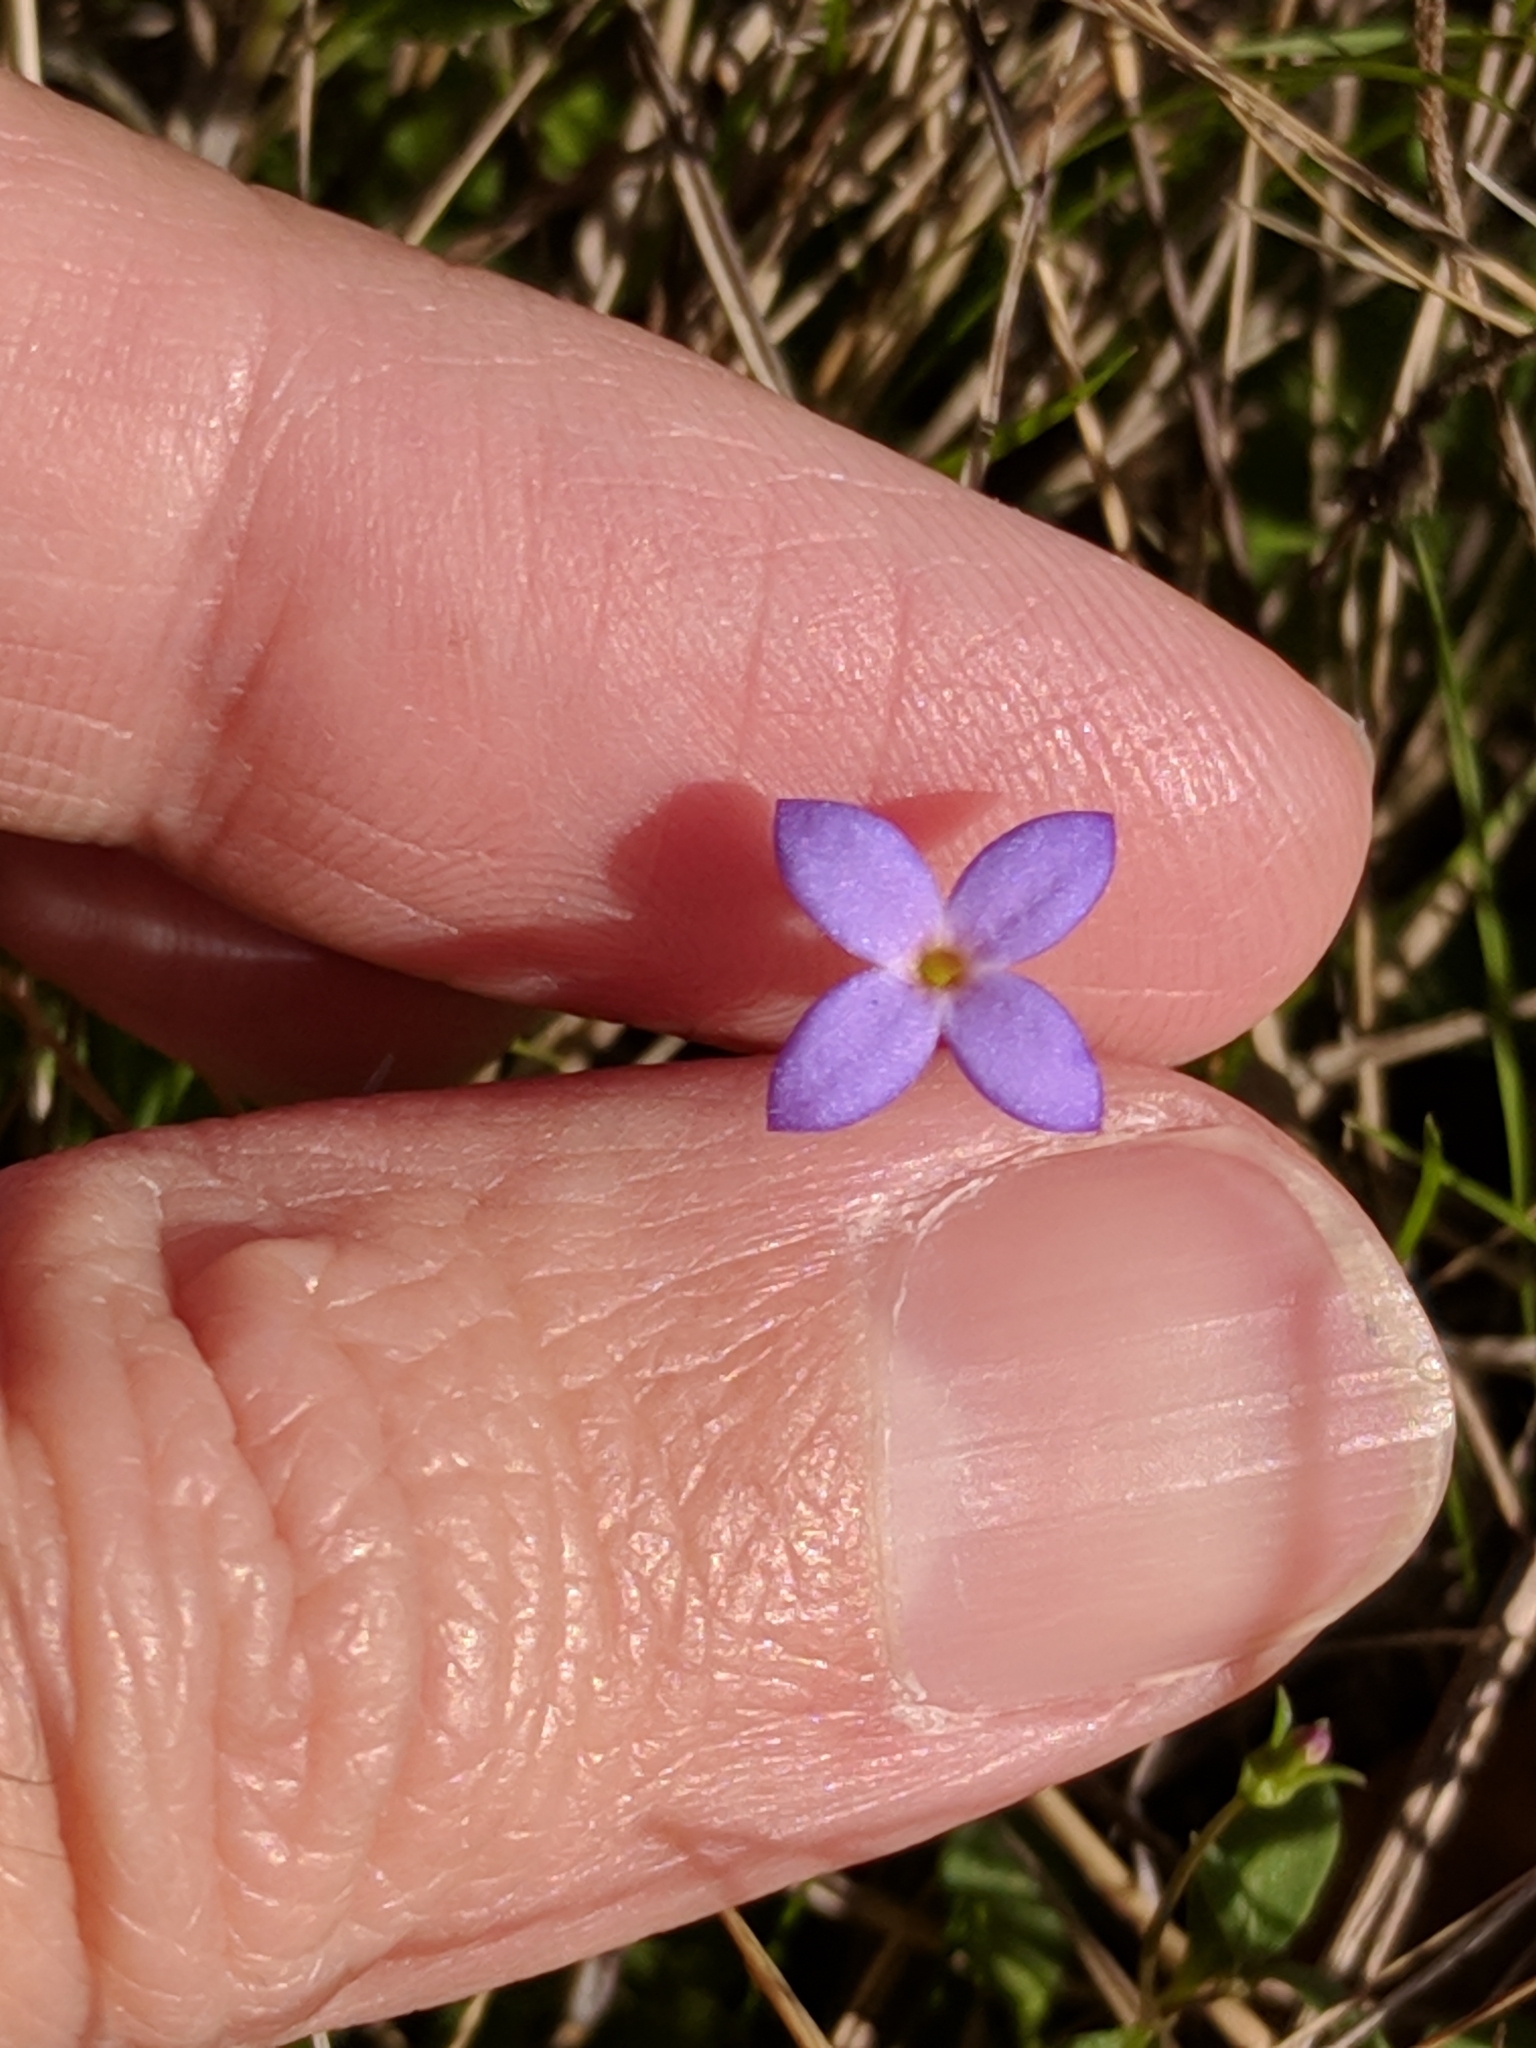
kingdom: Plantae
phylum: Tracheophyta
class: Magnoliopsida
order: Gentianales
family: Rubiaceae
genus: Houstonia
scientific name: Houstonia pusilla
